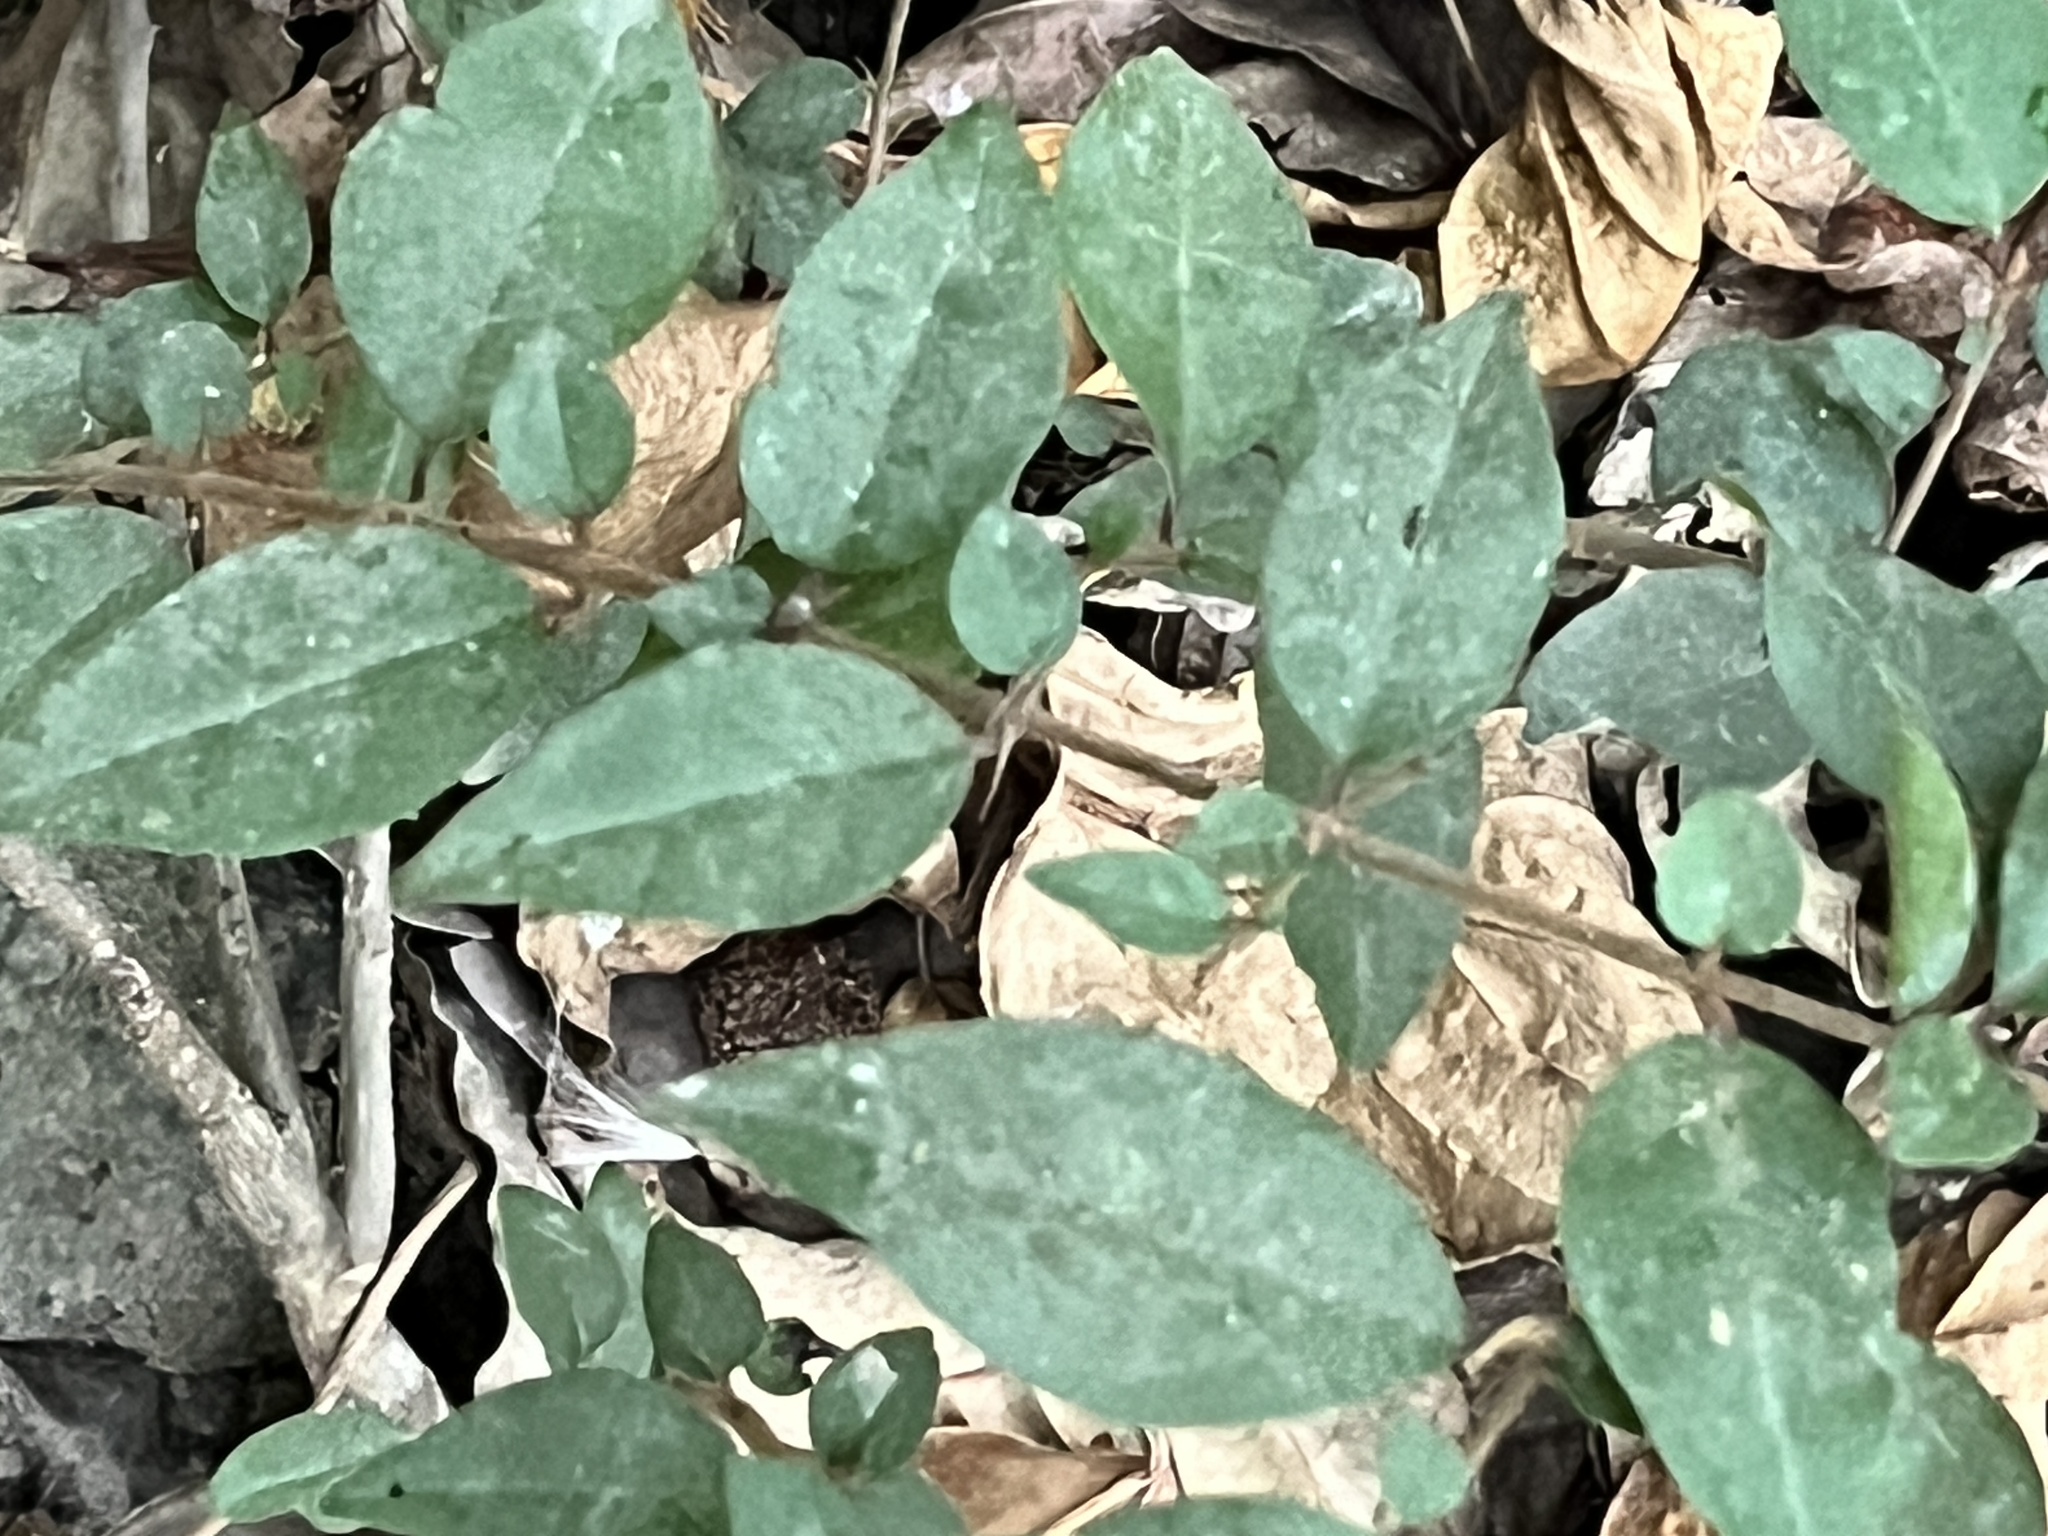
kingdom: Plantae
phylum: Tracheophyta
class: Magnoliopsida
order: Caryophyllales
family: Nyctaginaceae
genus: Pisonia
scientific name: Pisonia aculeata
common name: Cockspur vine
